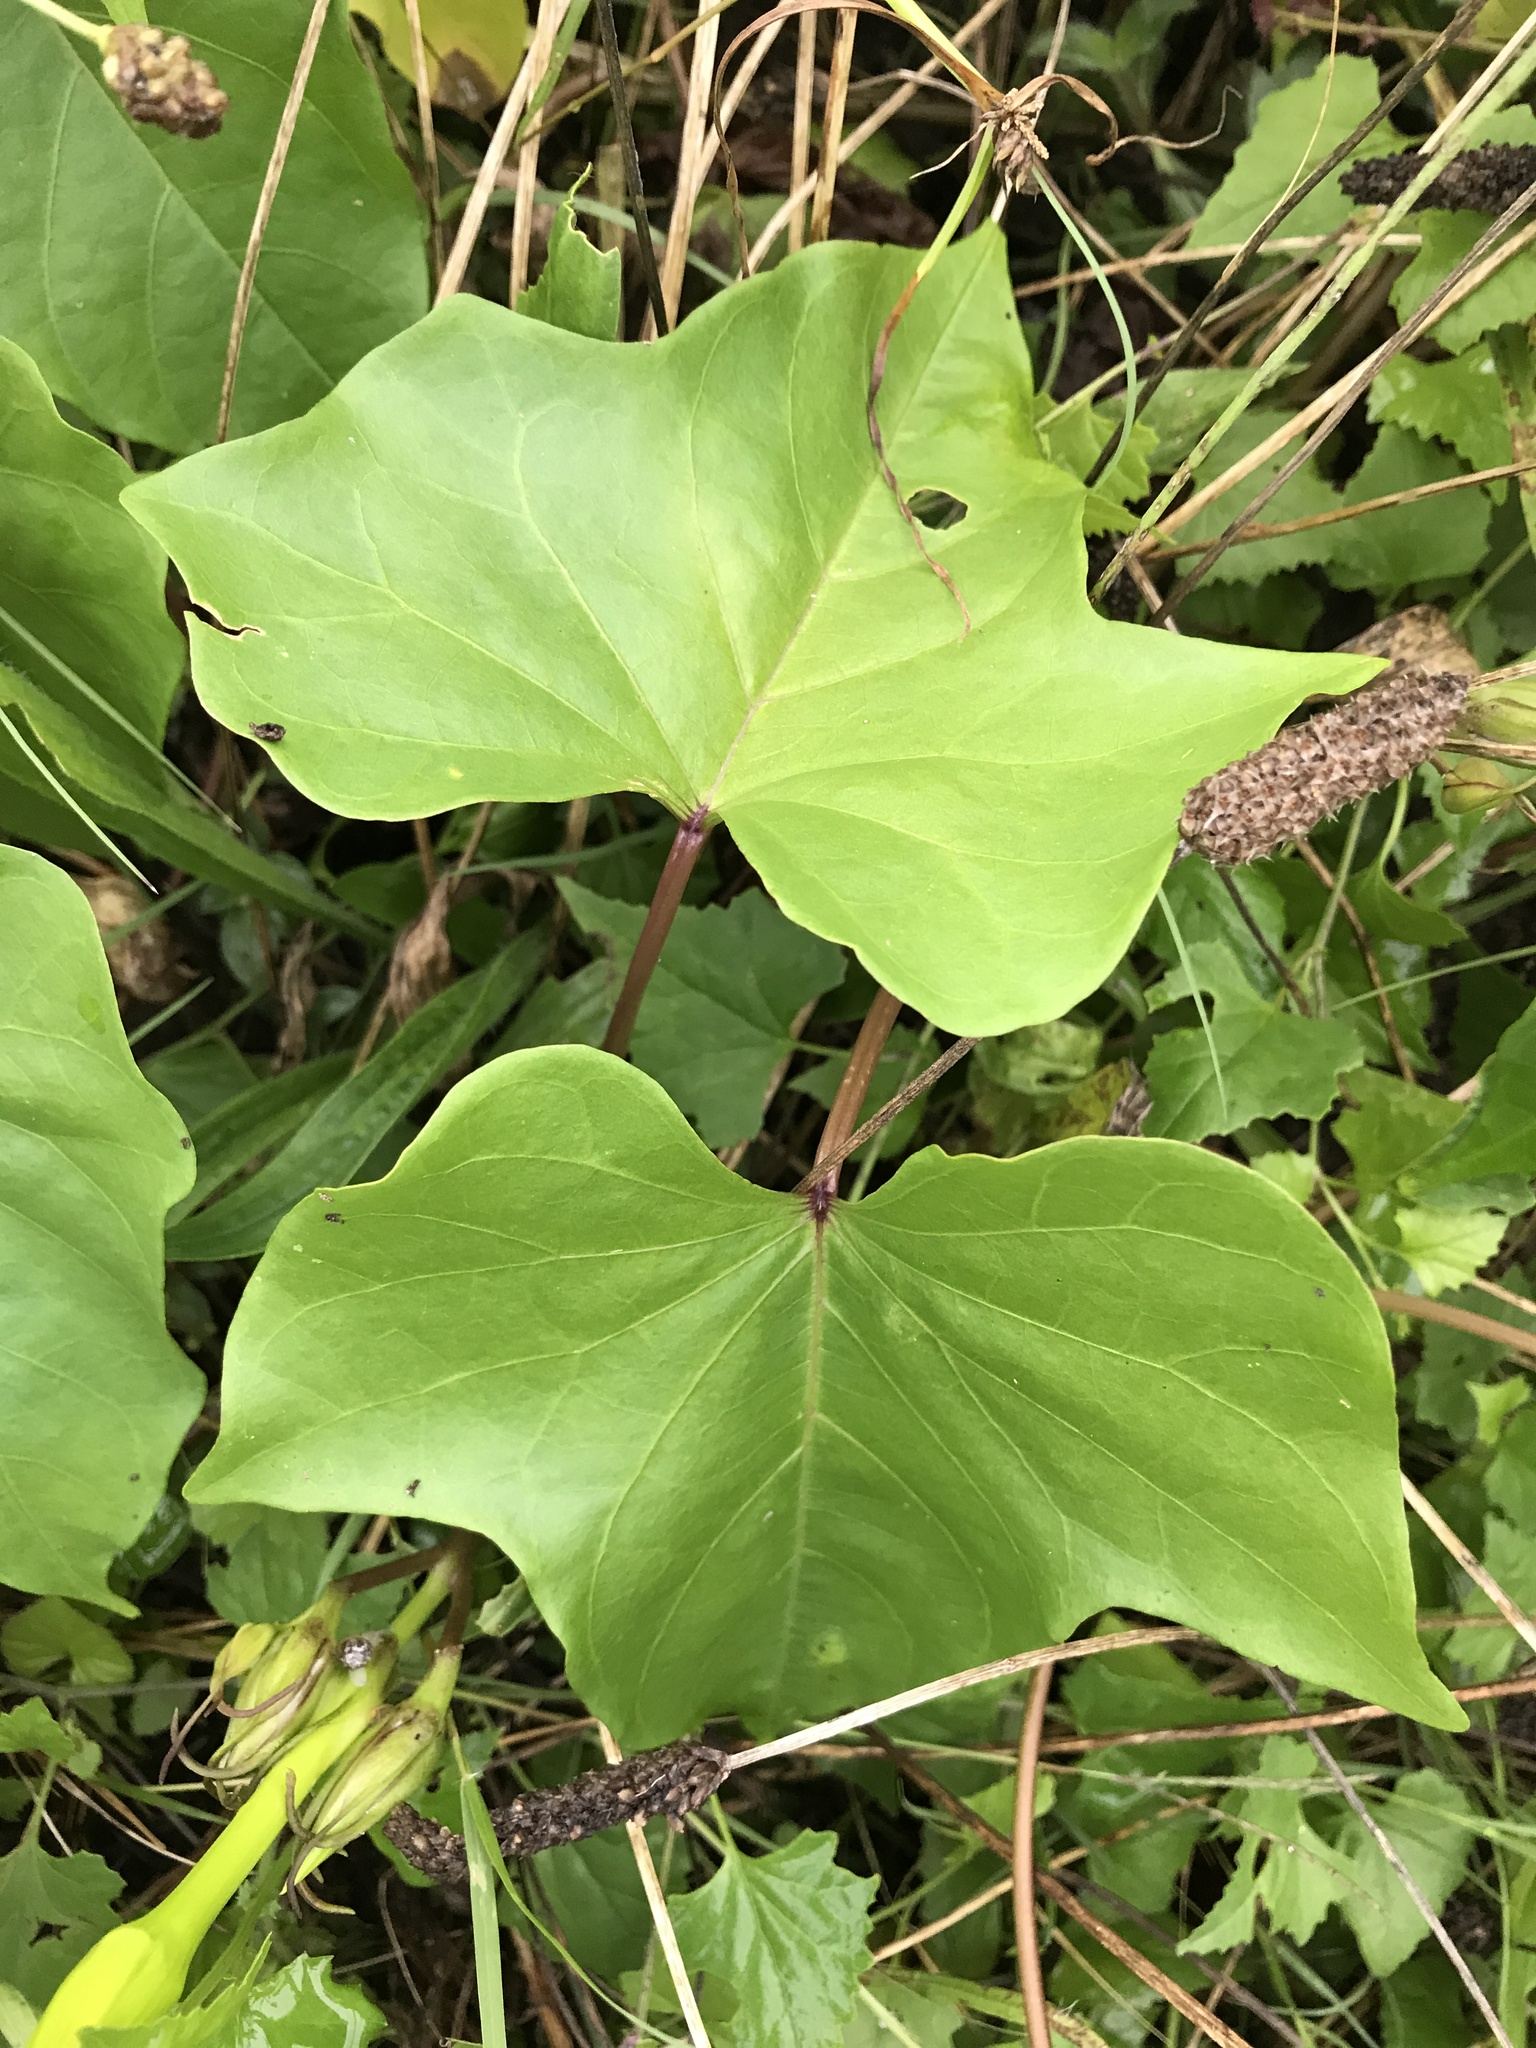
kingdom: Plantae
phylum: Tracheophyta
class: Magnoliopsida
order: Solanales
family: Convolvulaceae
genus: Ipomoea
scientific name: Ipomoea alba
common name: Moonflower
